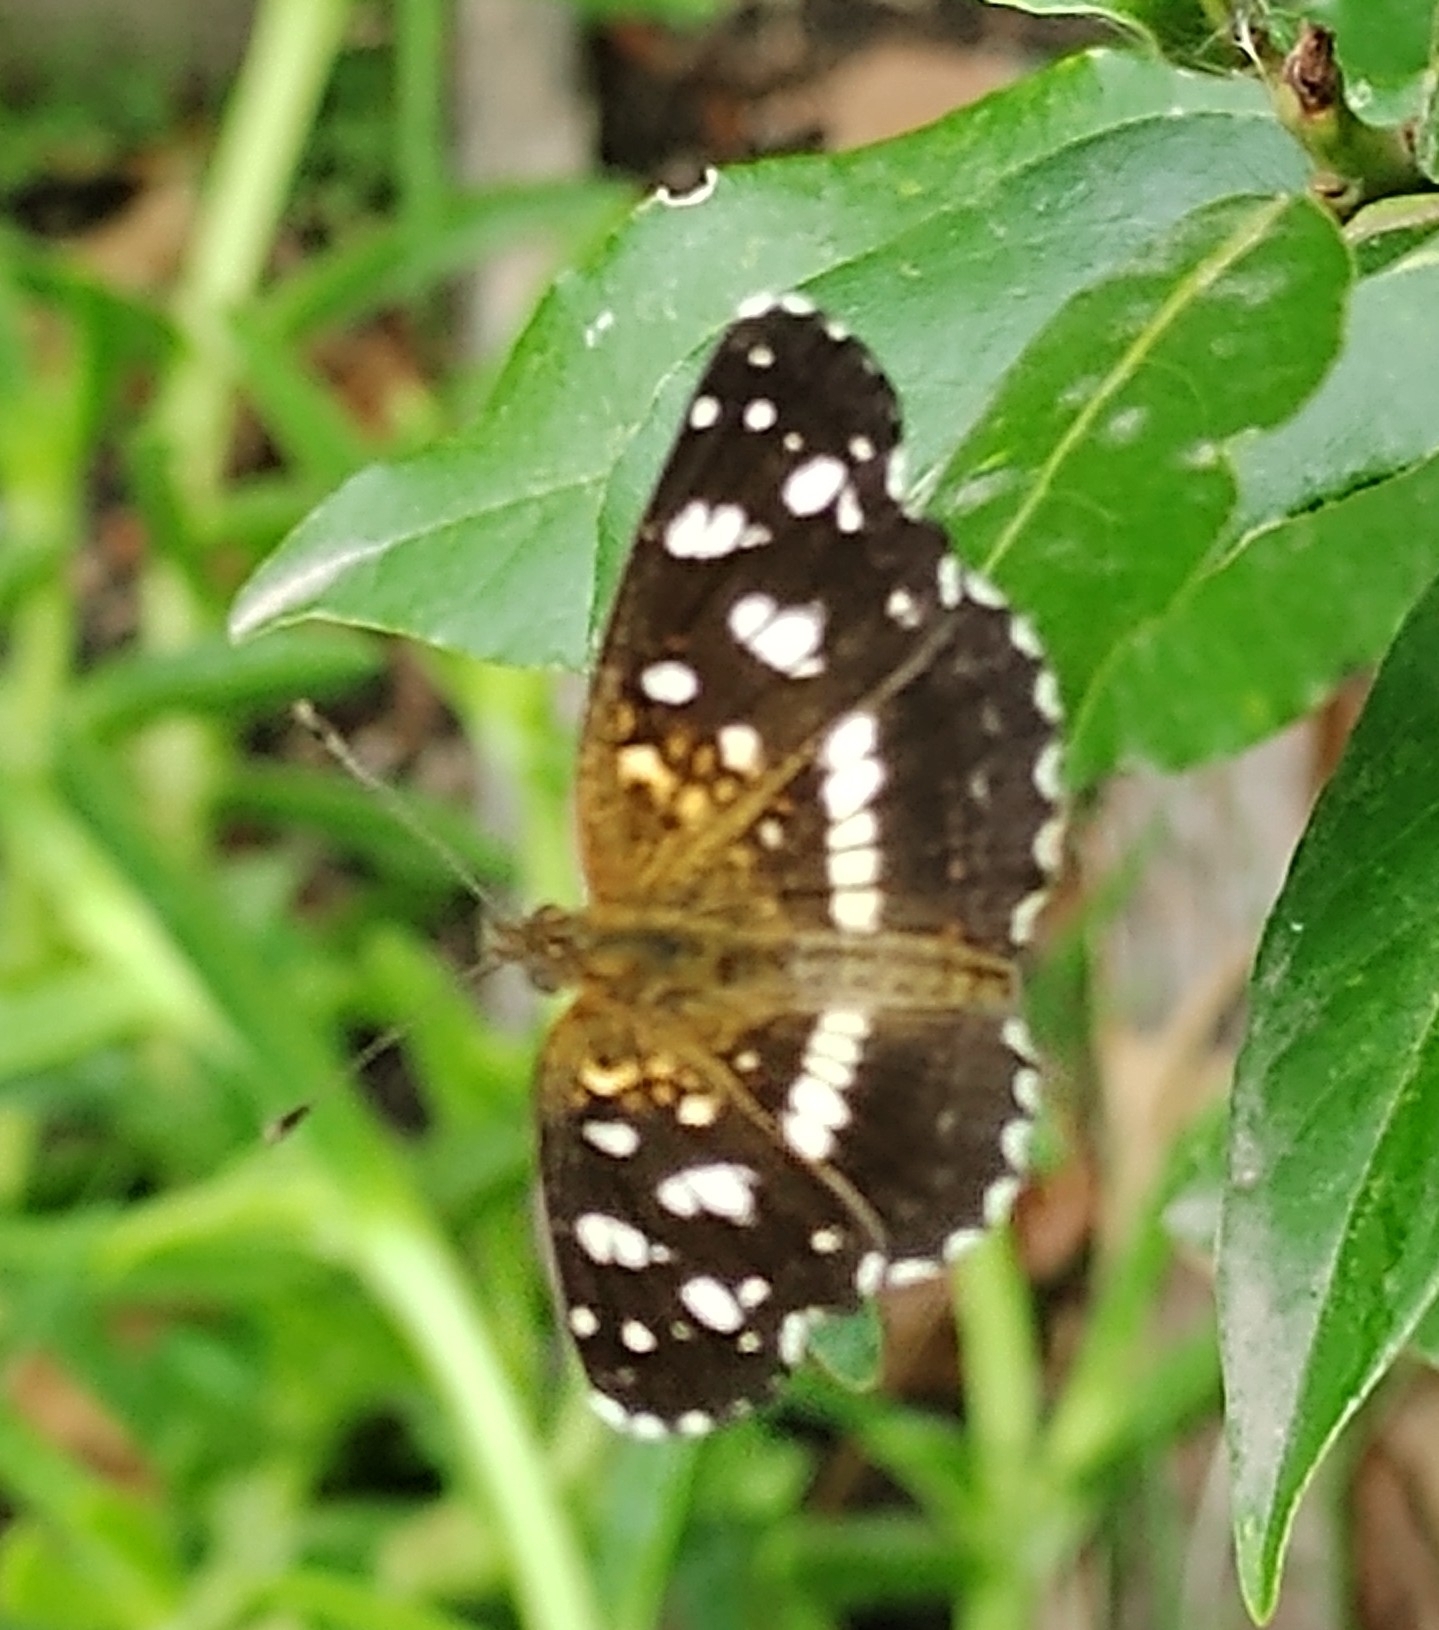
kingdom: Animalia
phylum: Arthropoda
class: Insecta
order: Lepidoptera
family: Nymphalidae
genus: Ortilia
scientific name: Ortilia ithra
